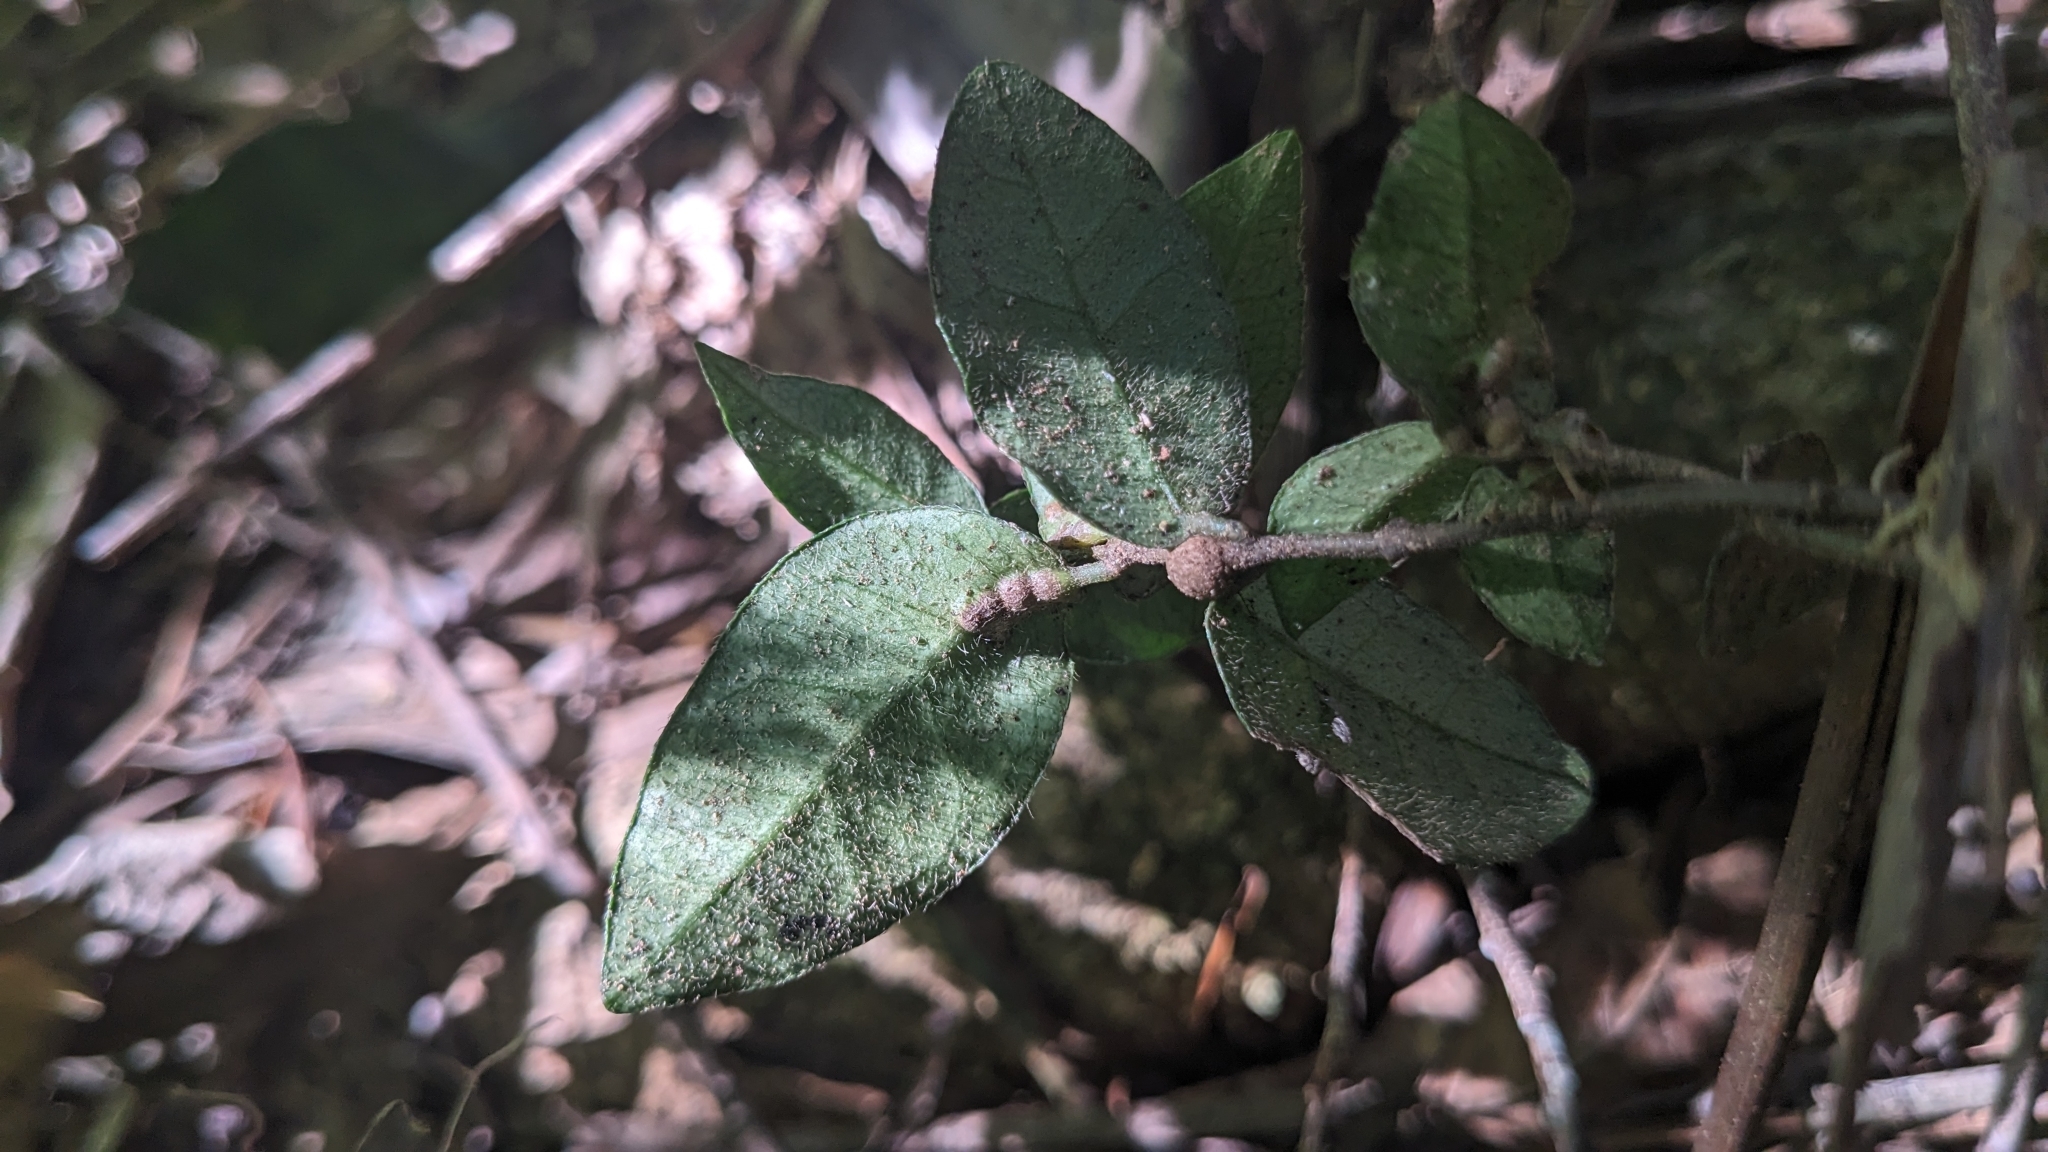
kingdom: Plantae
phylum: Tracheophyta
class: Magnoliopsida
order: Gentianales
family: Apocynaceae
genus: Trachelospermum
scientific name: Trachelospermum jasminoides
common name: Confederate jasmine
